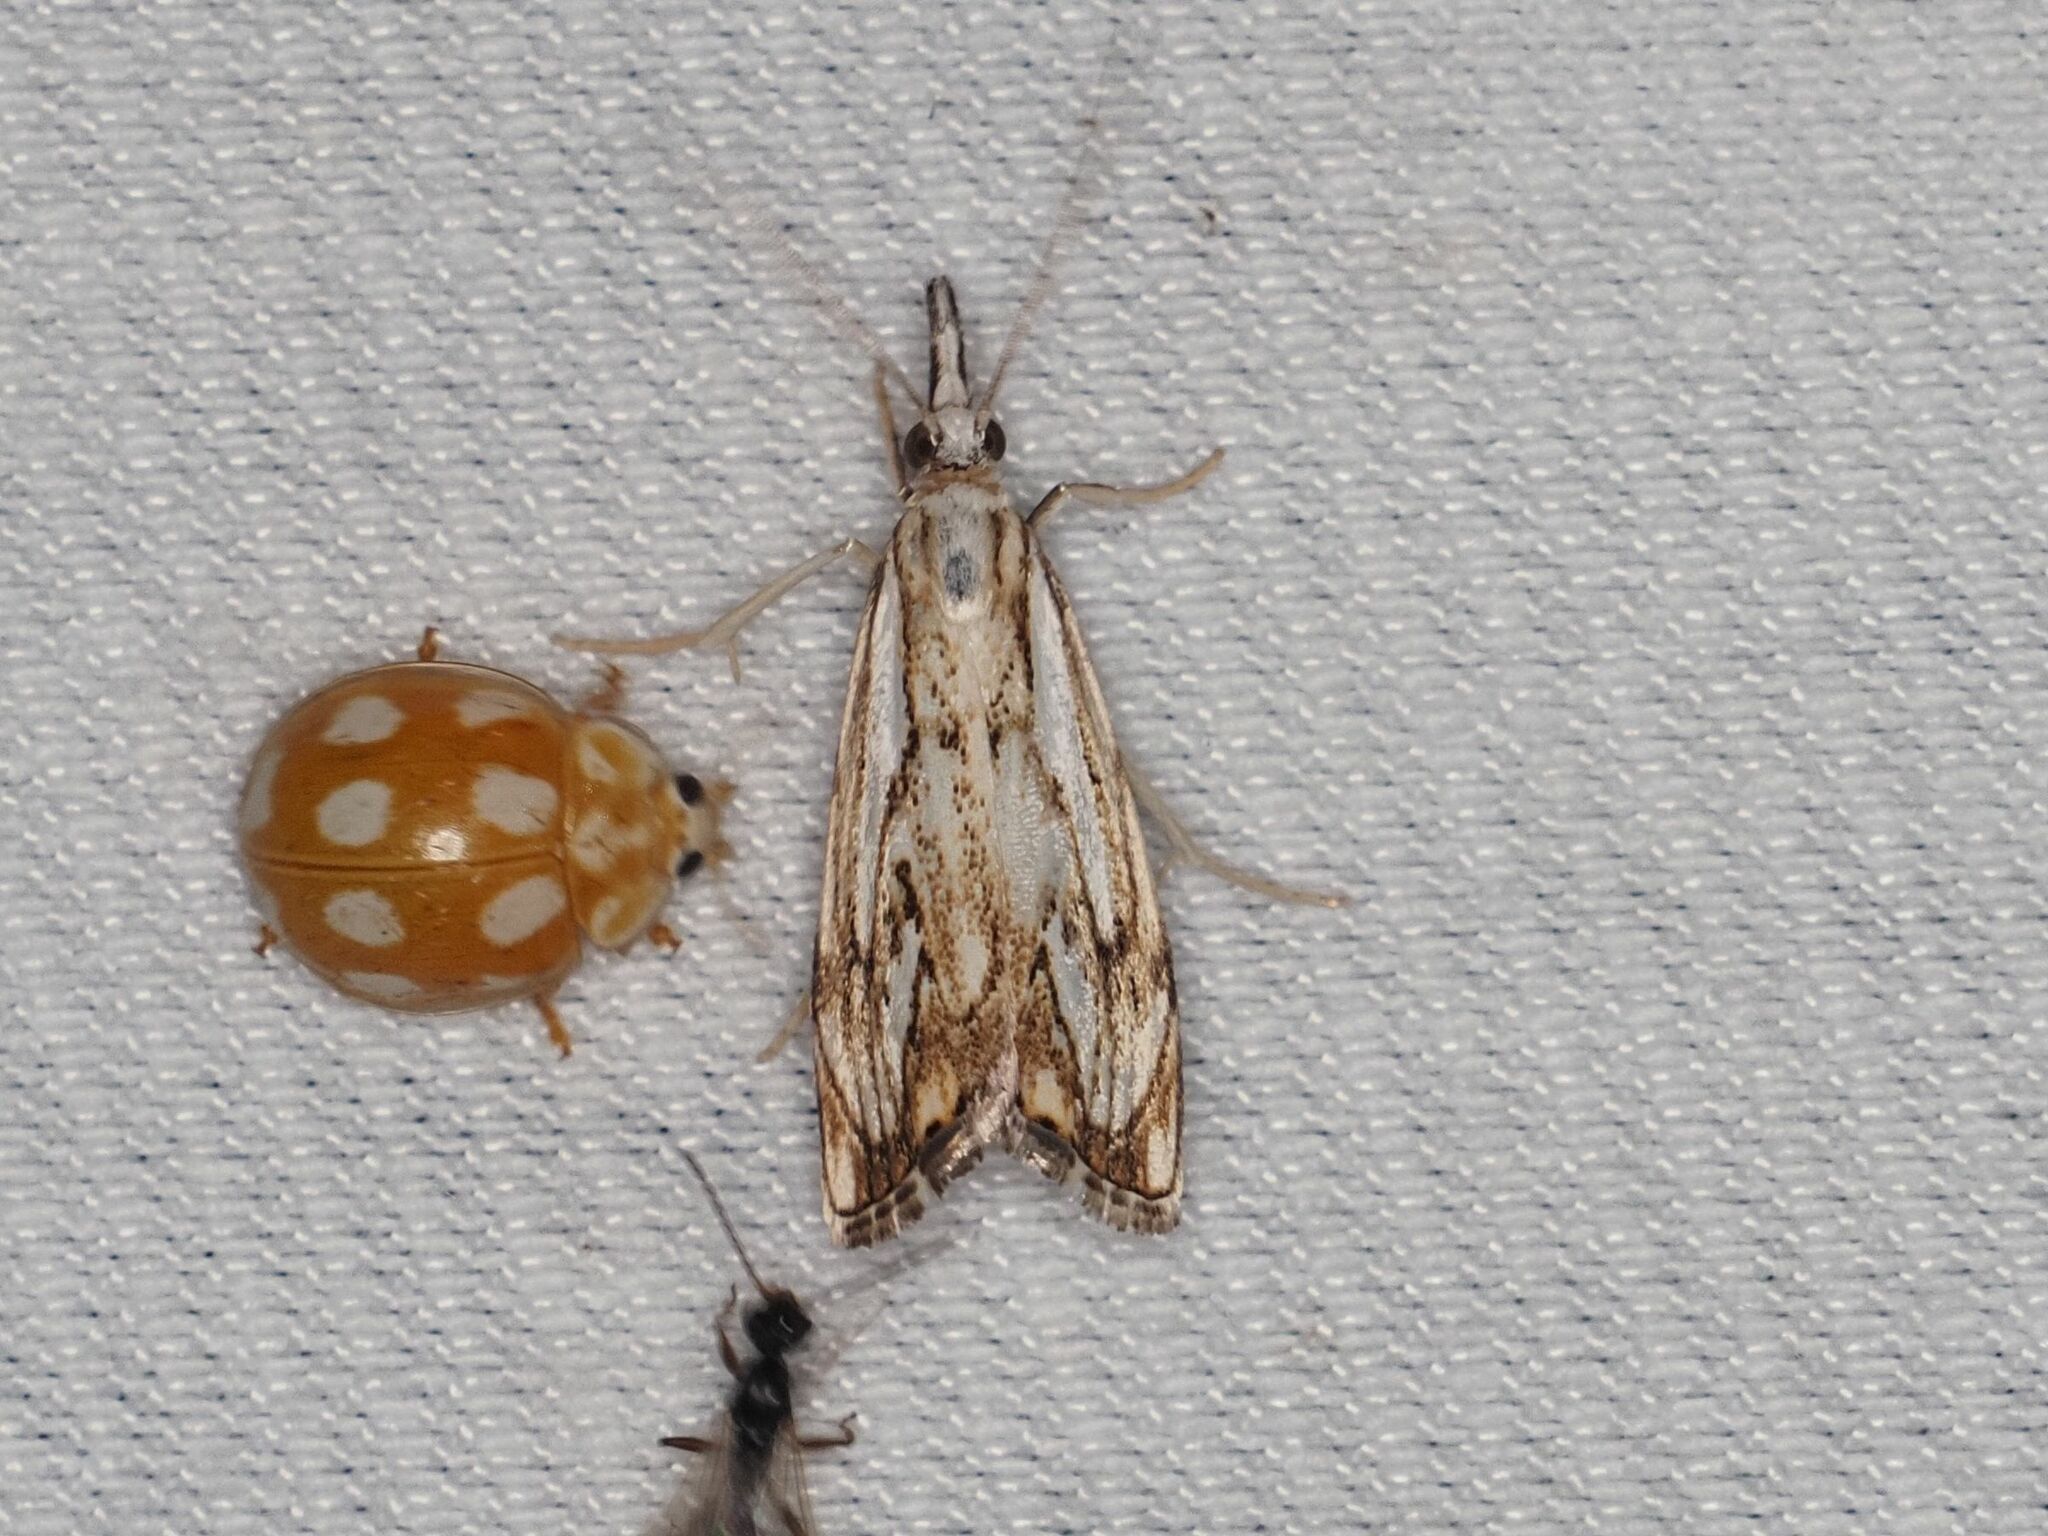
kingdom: Animalia
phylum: Arthropoda
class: Insecta
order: Lepidoptera
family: Crambidae
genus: Catoptria
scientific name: Catoptria falsella
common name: Chequered grass-veneer
